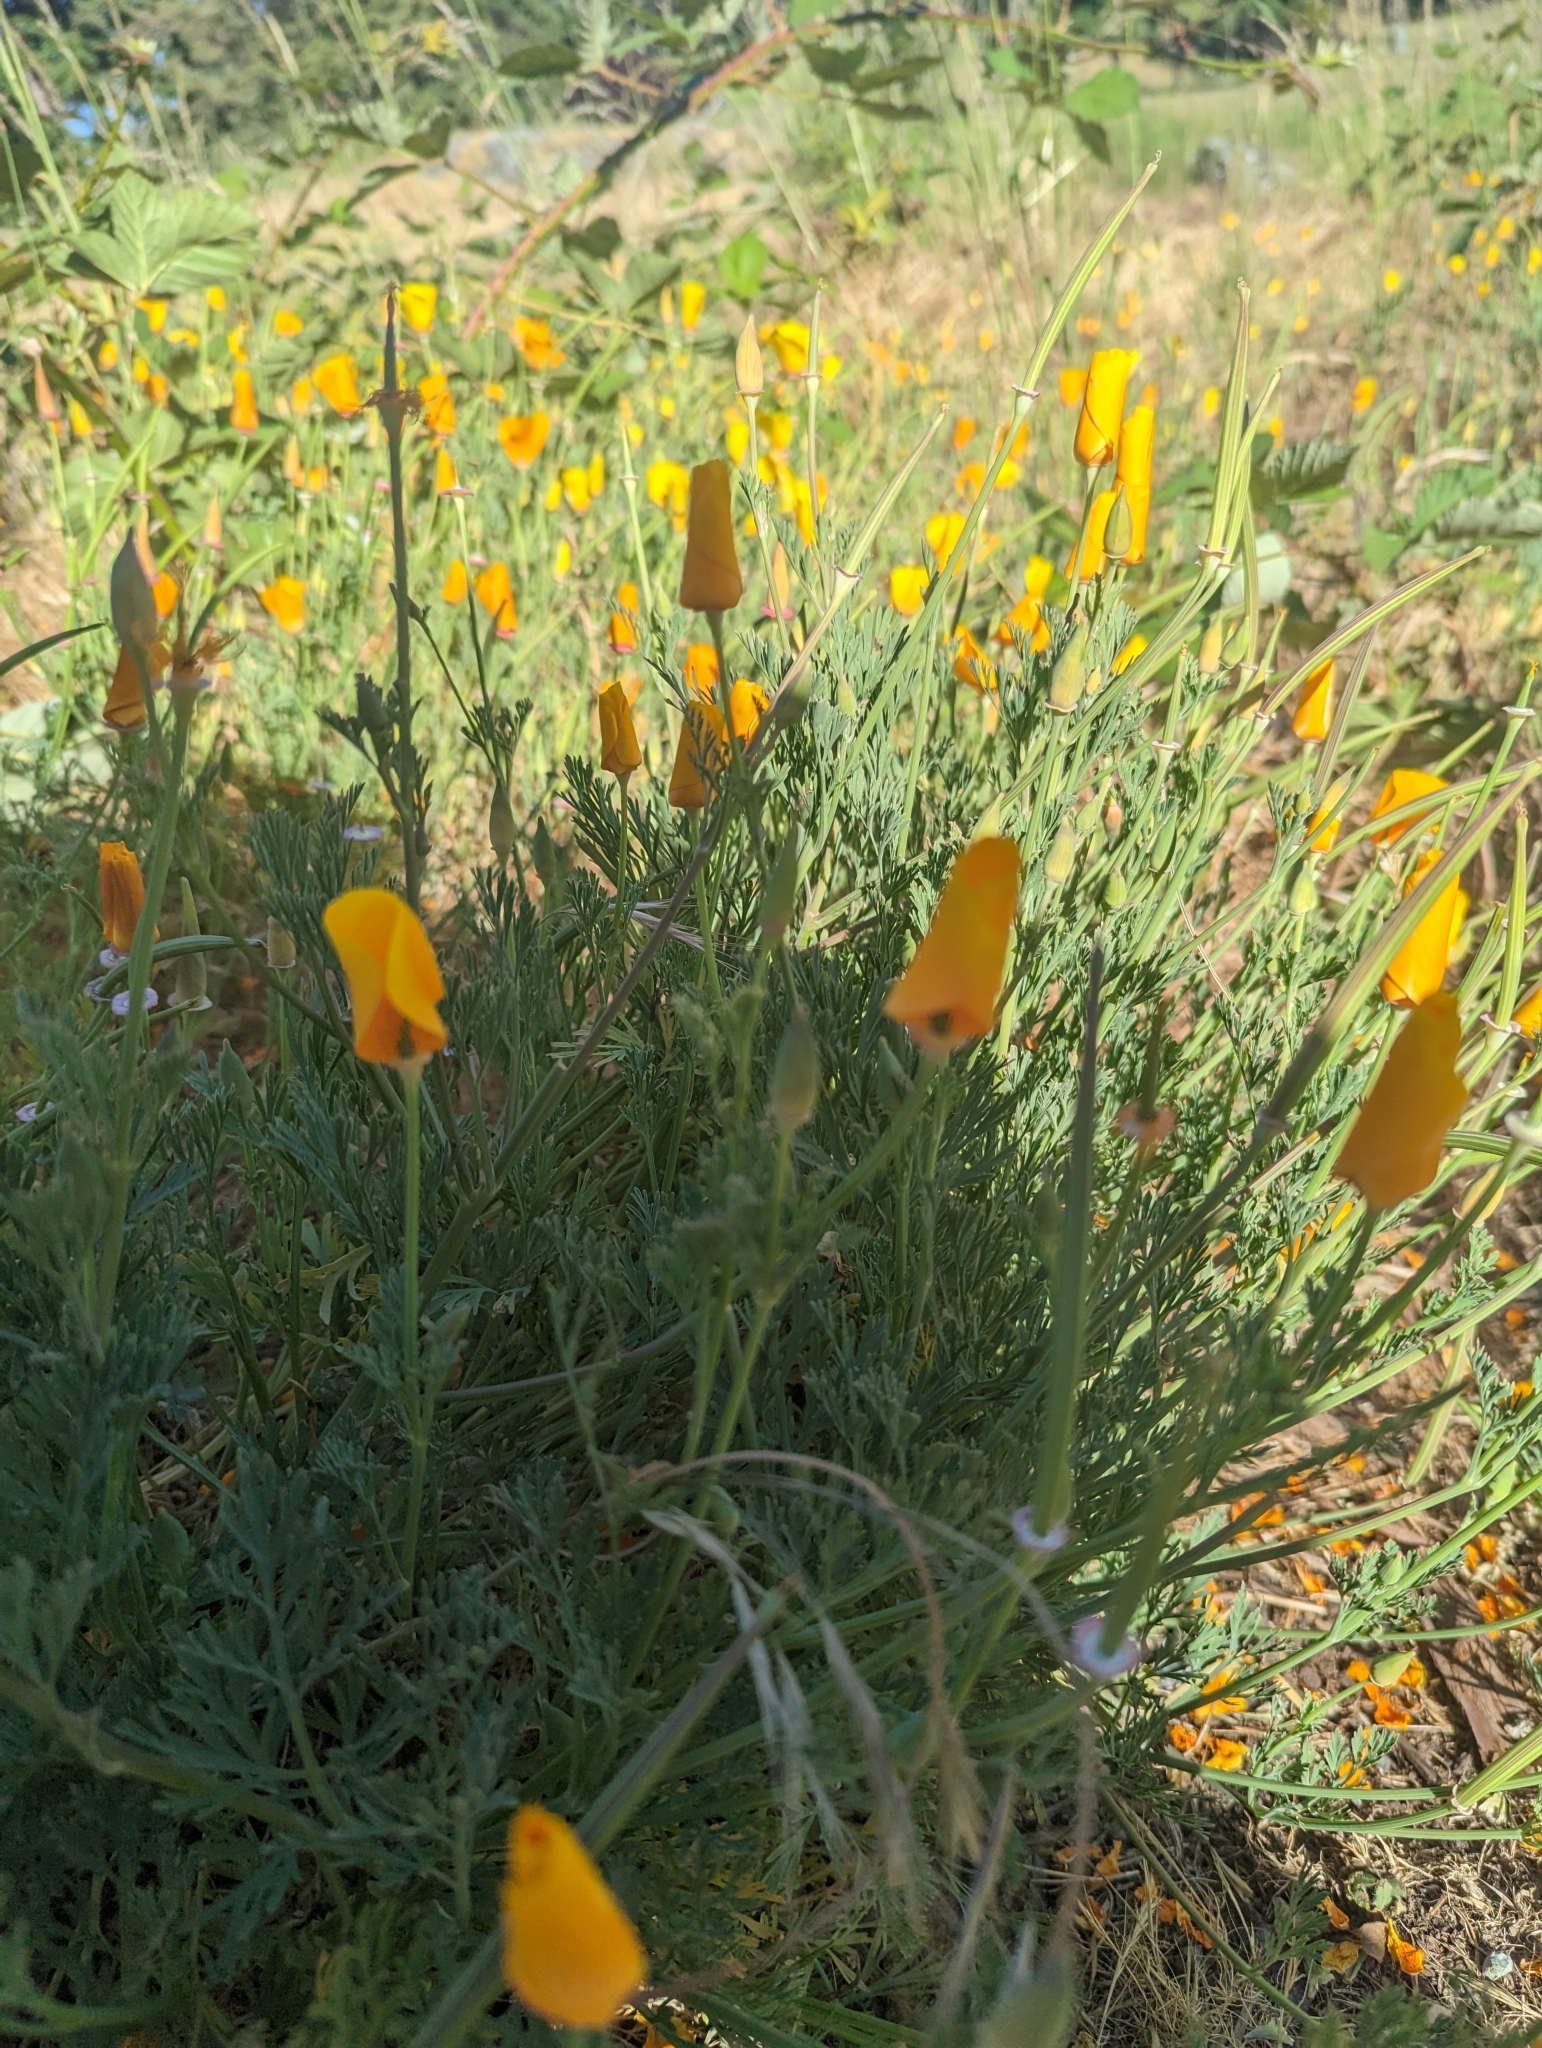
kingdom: Plantae
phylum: Tracheophyta
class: Magnoliopsida
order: Ranunculales
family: Papaveraceae
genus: Eschscholzia
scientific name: Eschscholzia californica
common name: California poppy
